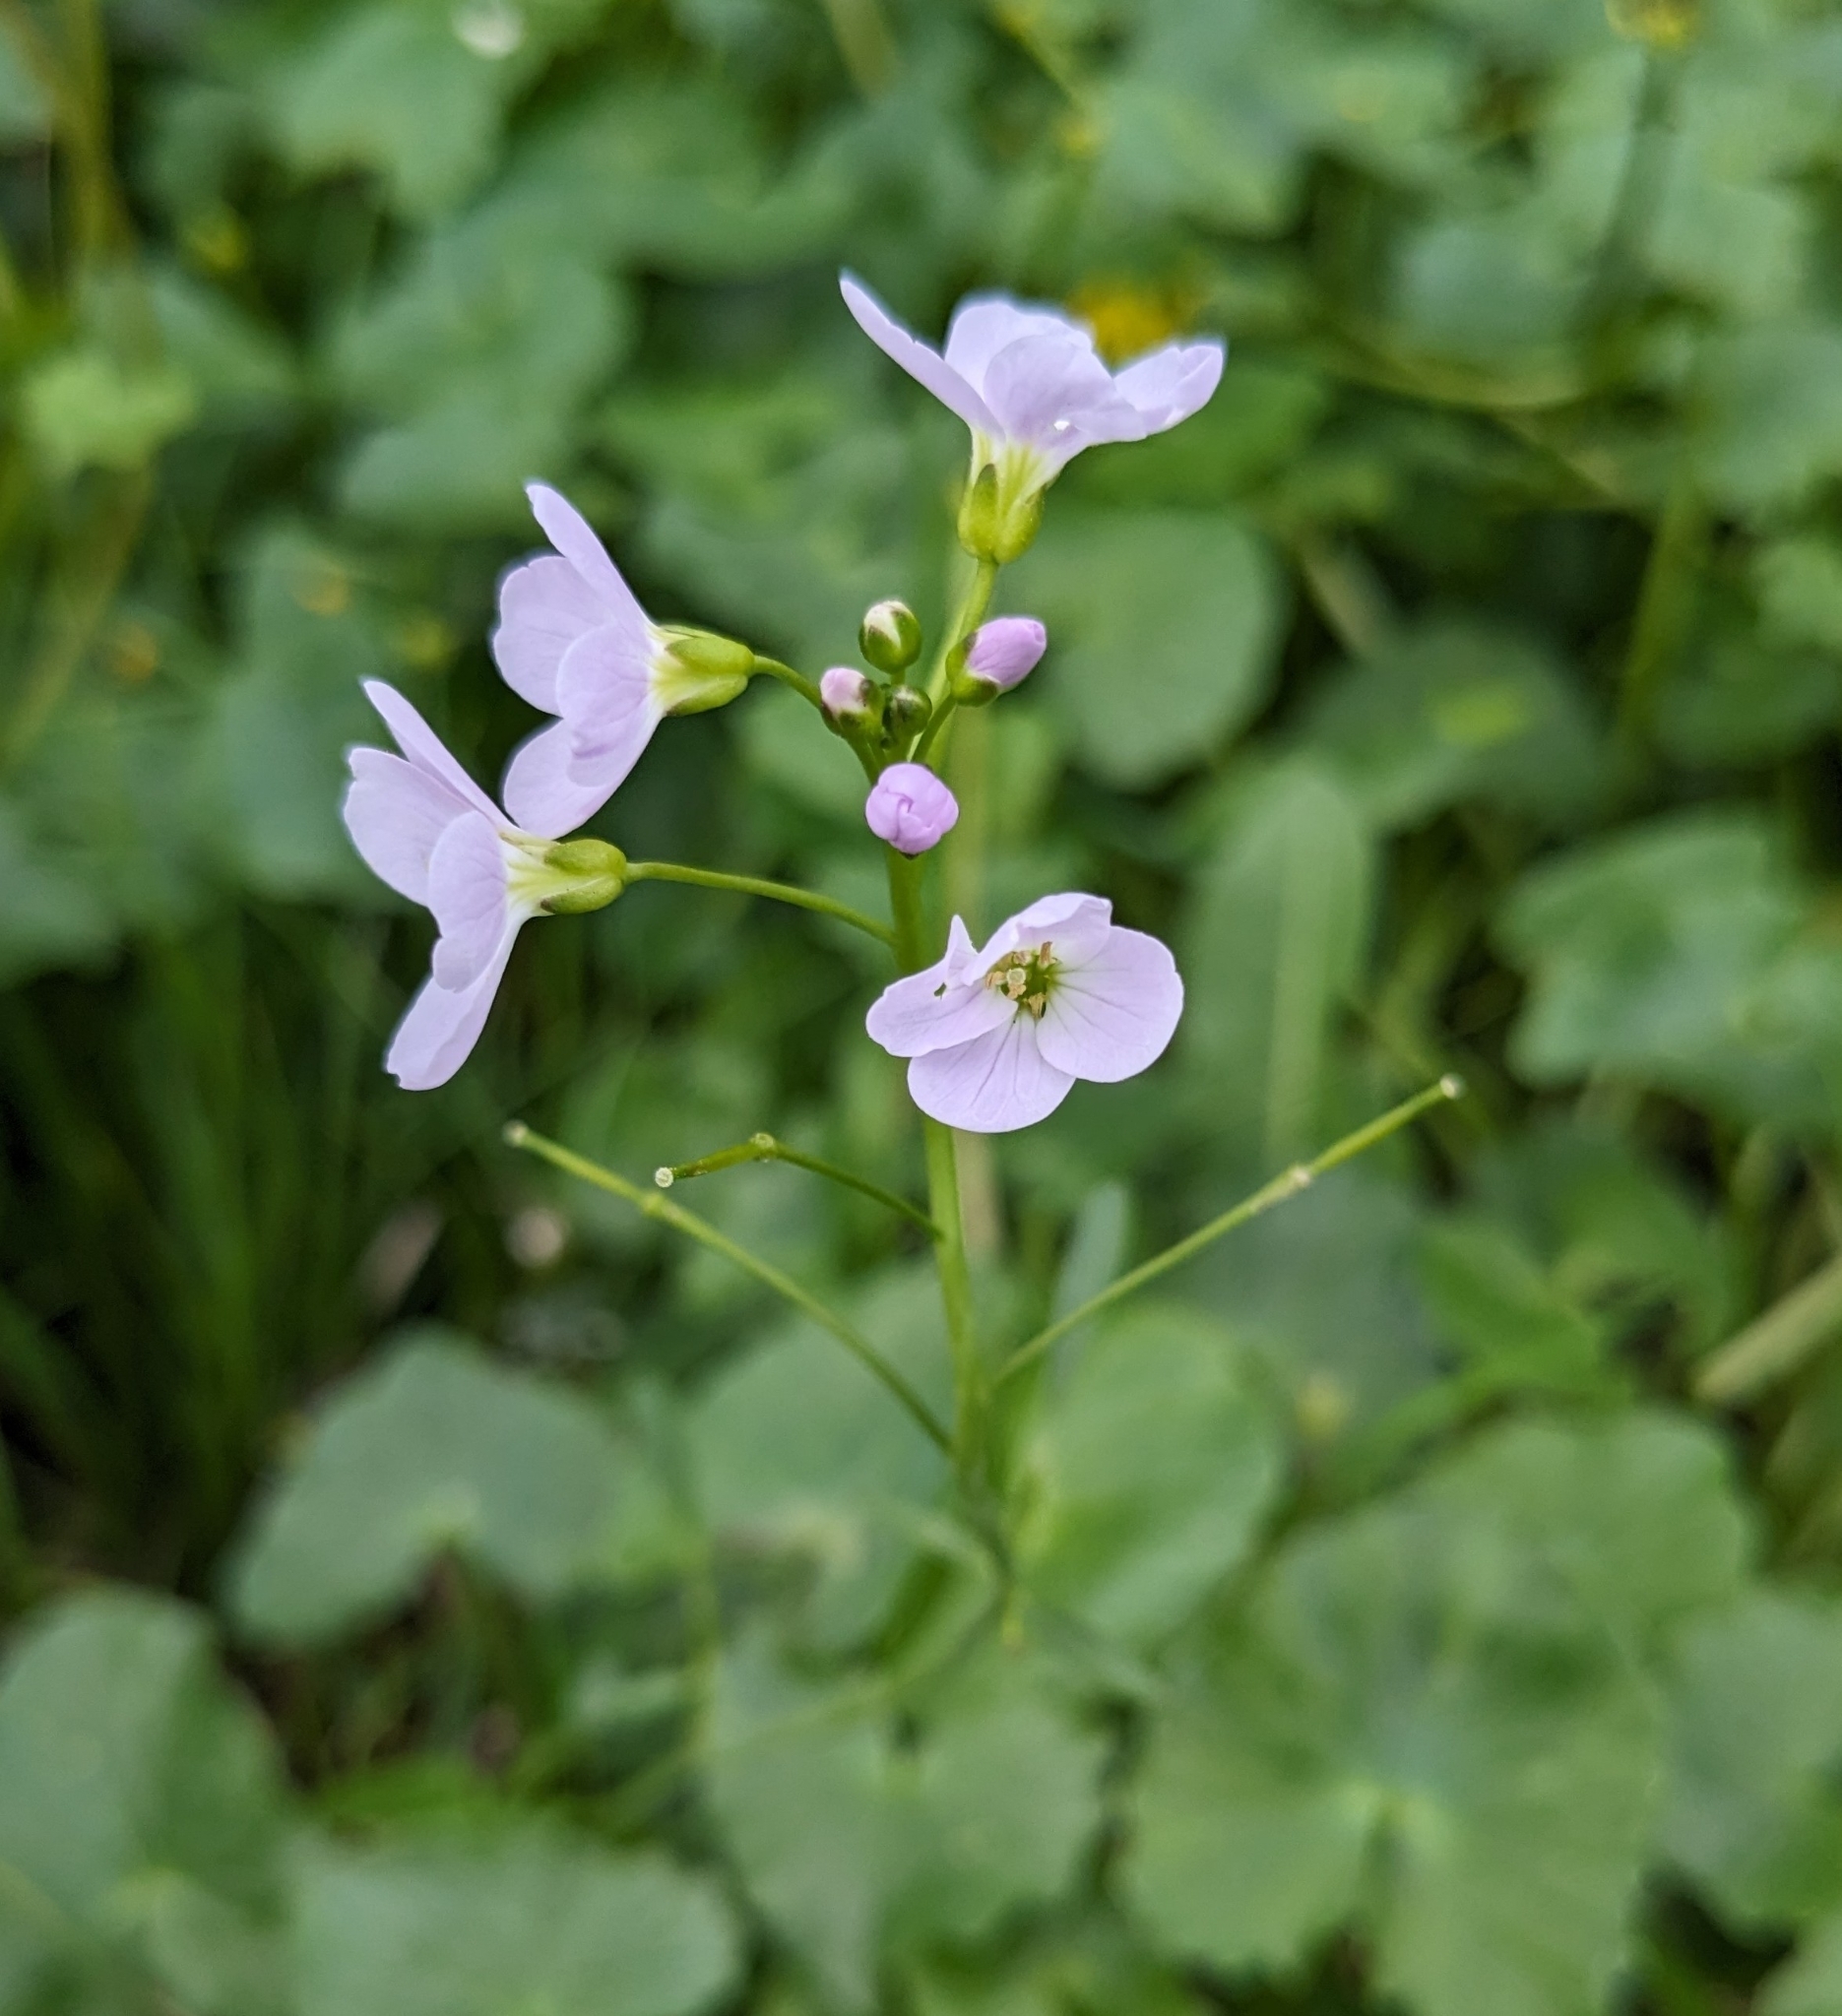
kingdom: Plantae
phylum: Tracheophyta
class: Magnoliopsida
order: Brassicales
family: Brassicaceae
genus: Cardamine
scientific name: Cardamine pratensis
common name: Cuckoo flower
